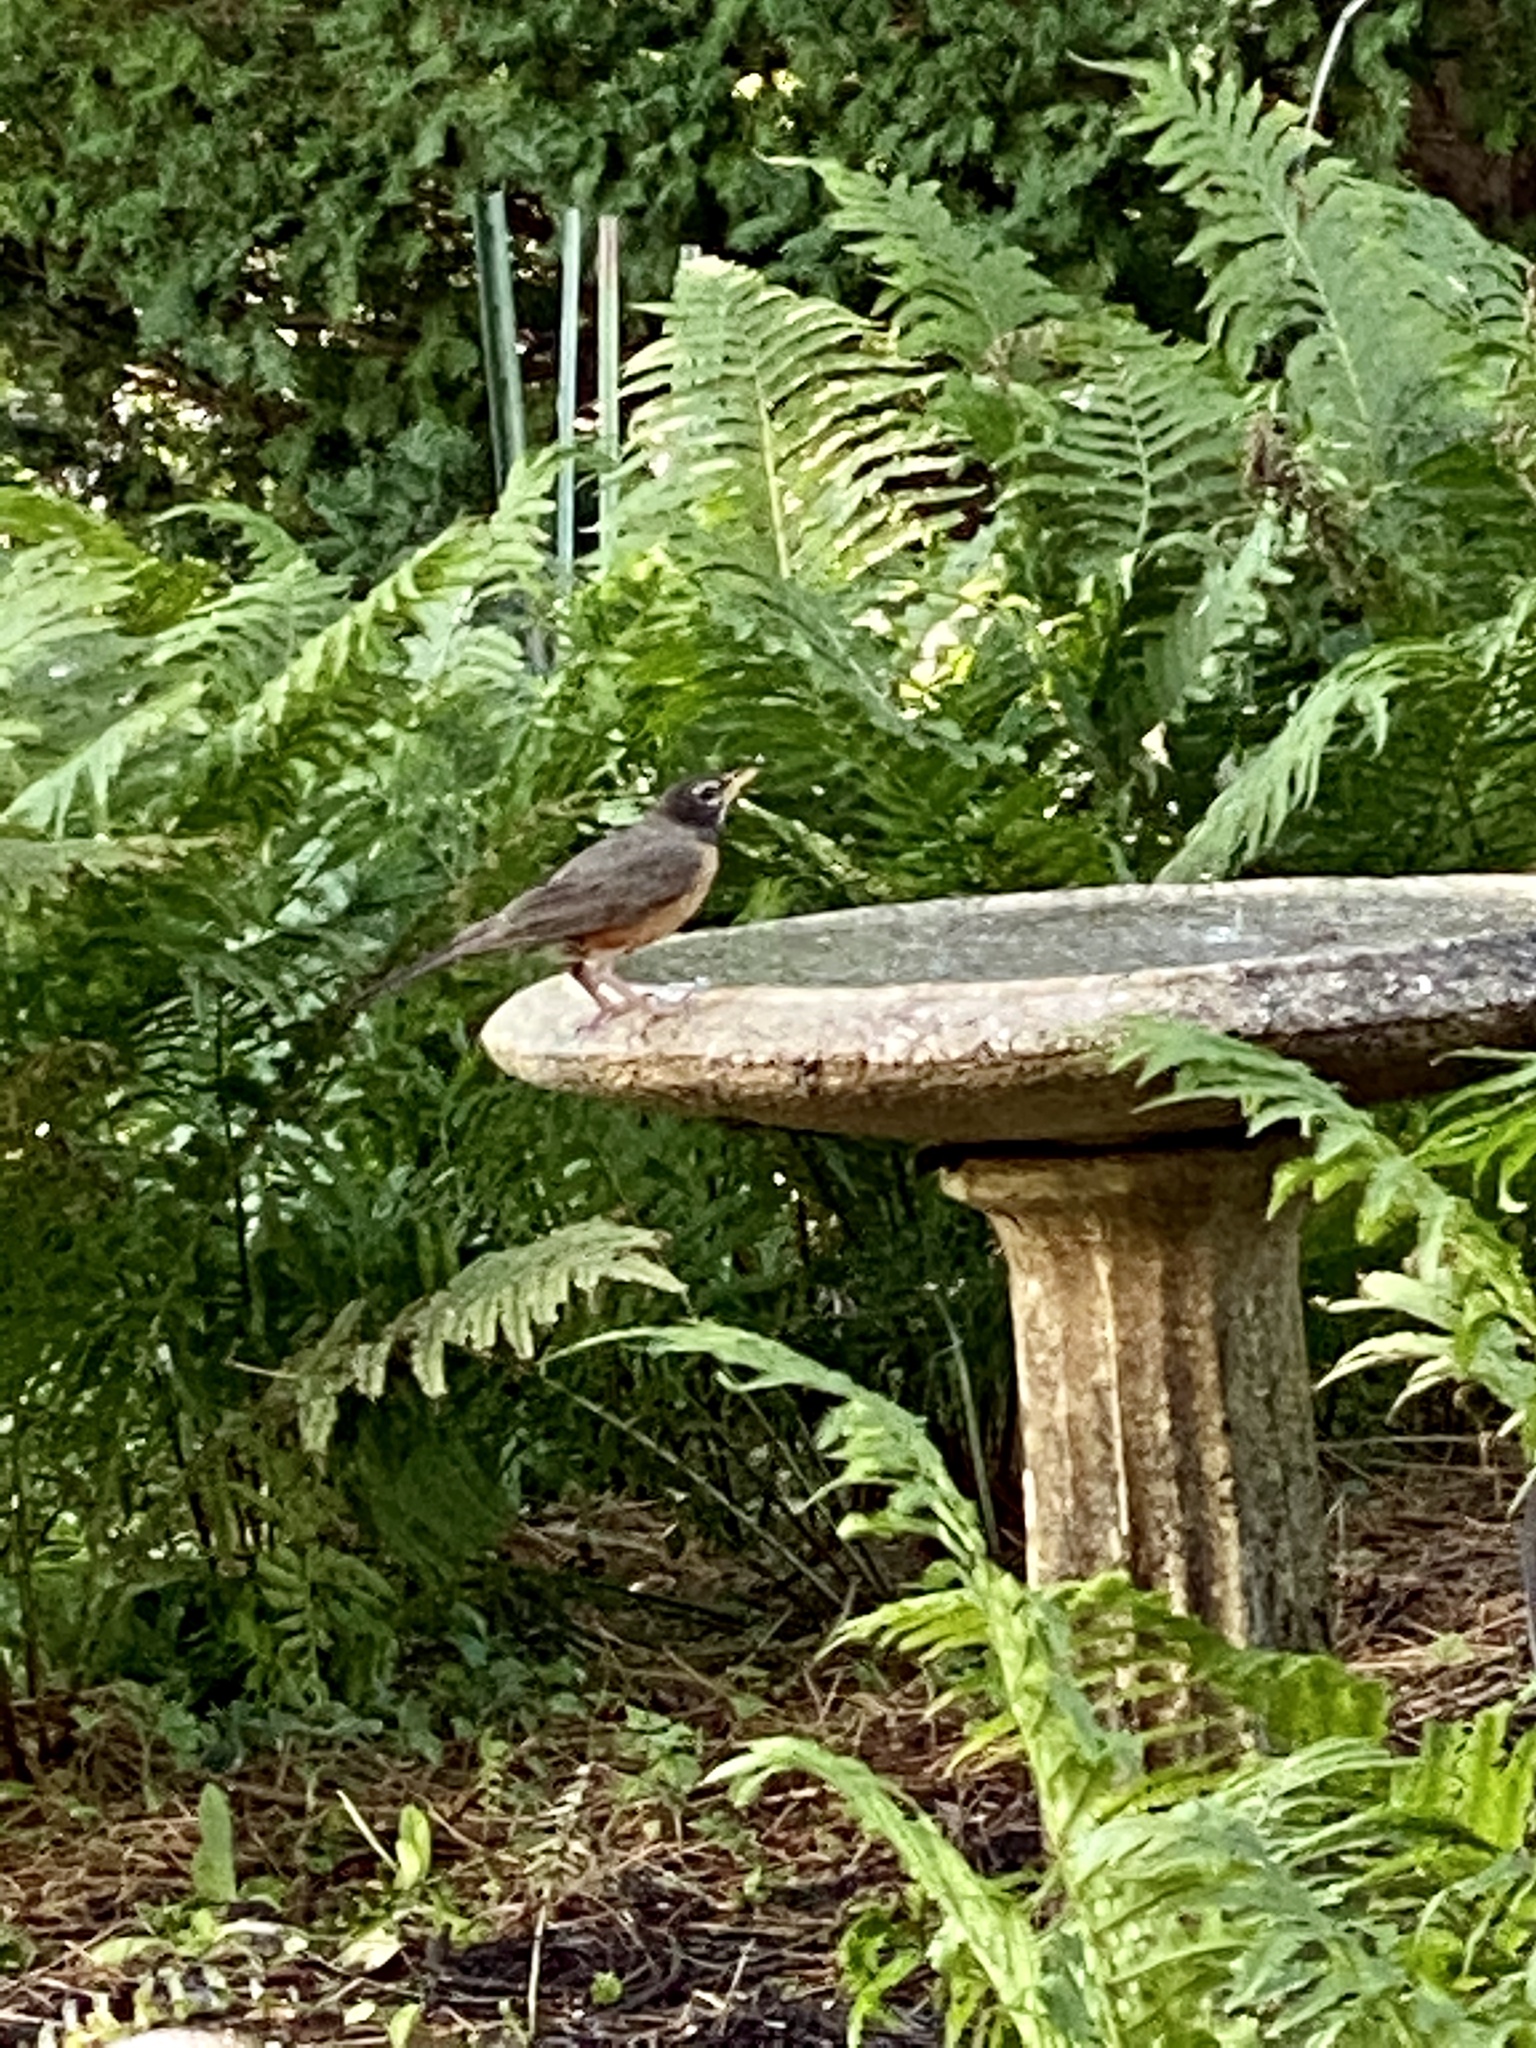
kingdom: Animalia
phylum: Chordata
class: Aves
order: Passeriformes
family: Turdidae
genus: Turdus
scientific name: Turdus migratorius
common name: American robin
